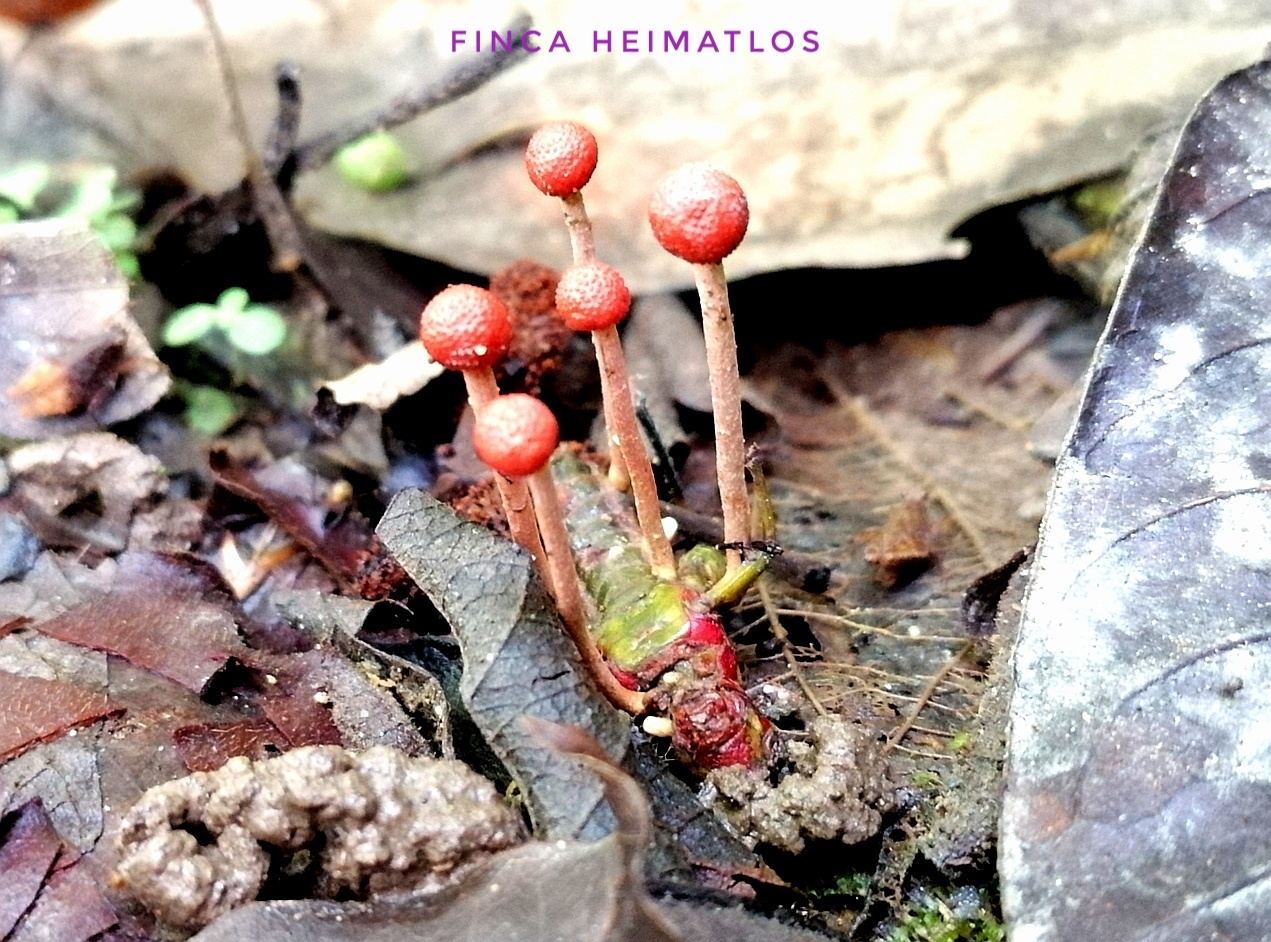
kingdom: Fungi
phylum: Ascomycota
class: Sordariomycetes
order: Hypocreales
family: Ophiocordycipitaceae
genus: Paraisaria
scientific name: Paraisaria amazonica
